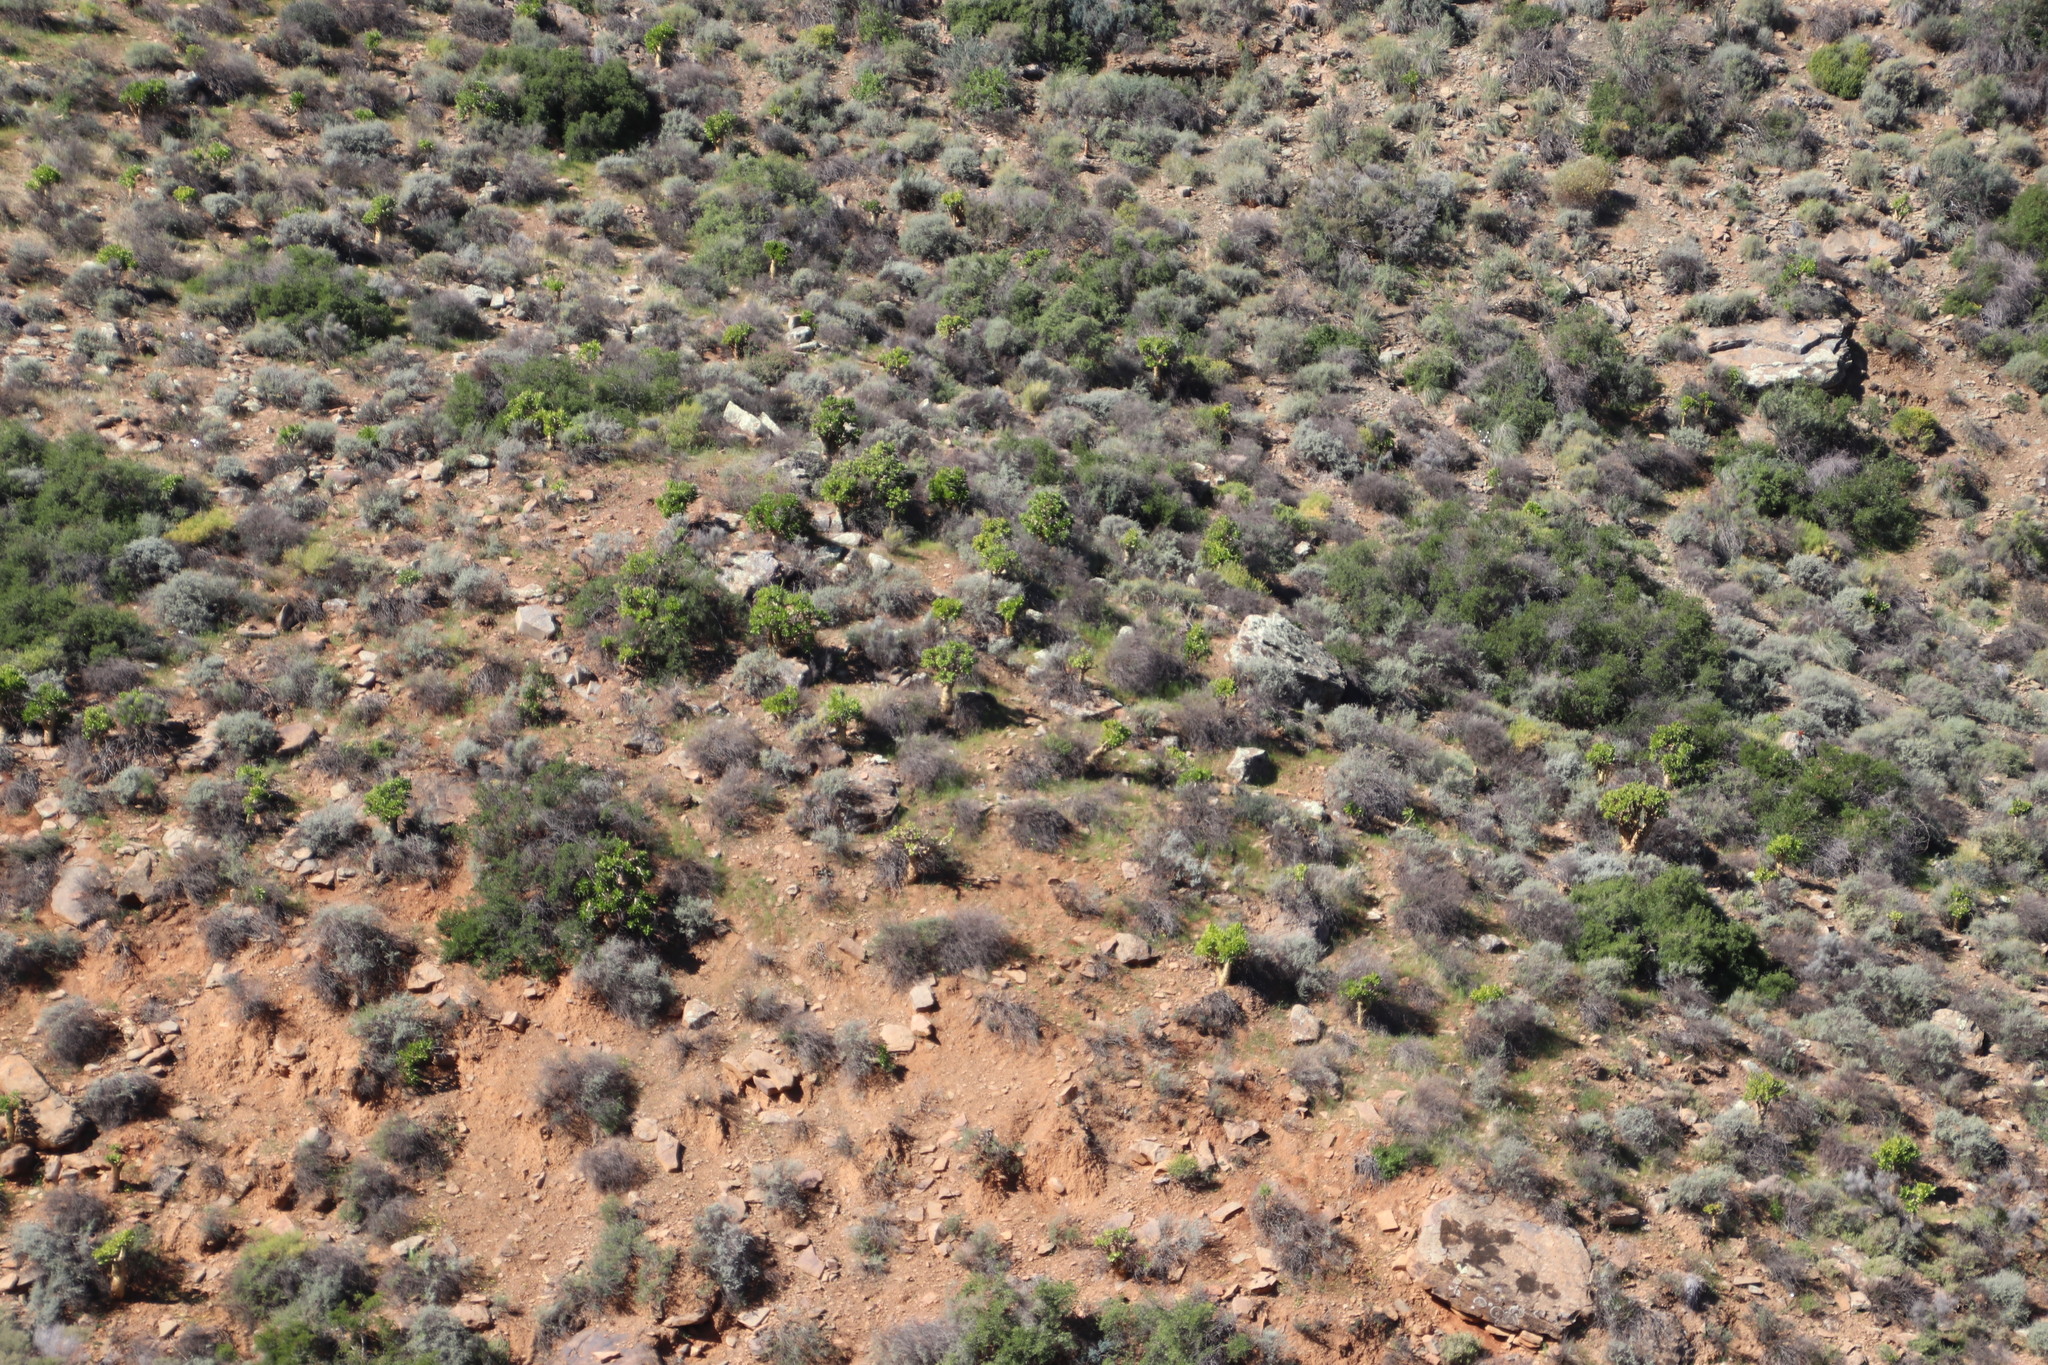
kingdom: Plantae
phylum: Tracheophyta
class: Magnoliopsida
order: Saxifragales
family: Crassulaceae
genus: Tylecodon
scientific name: Tylecodon paniculatus
